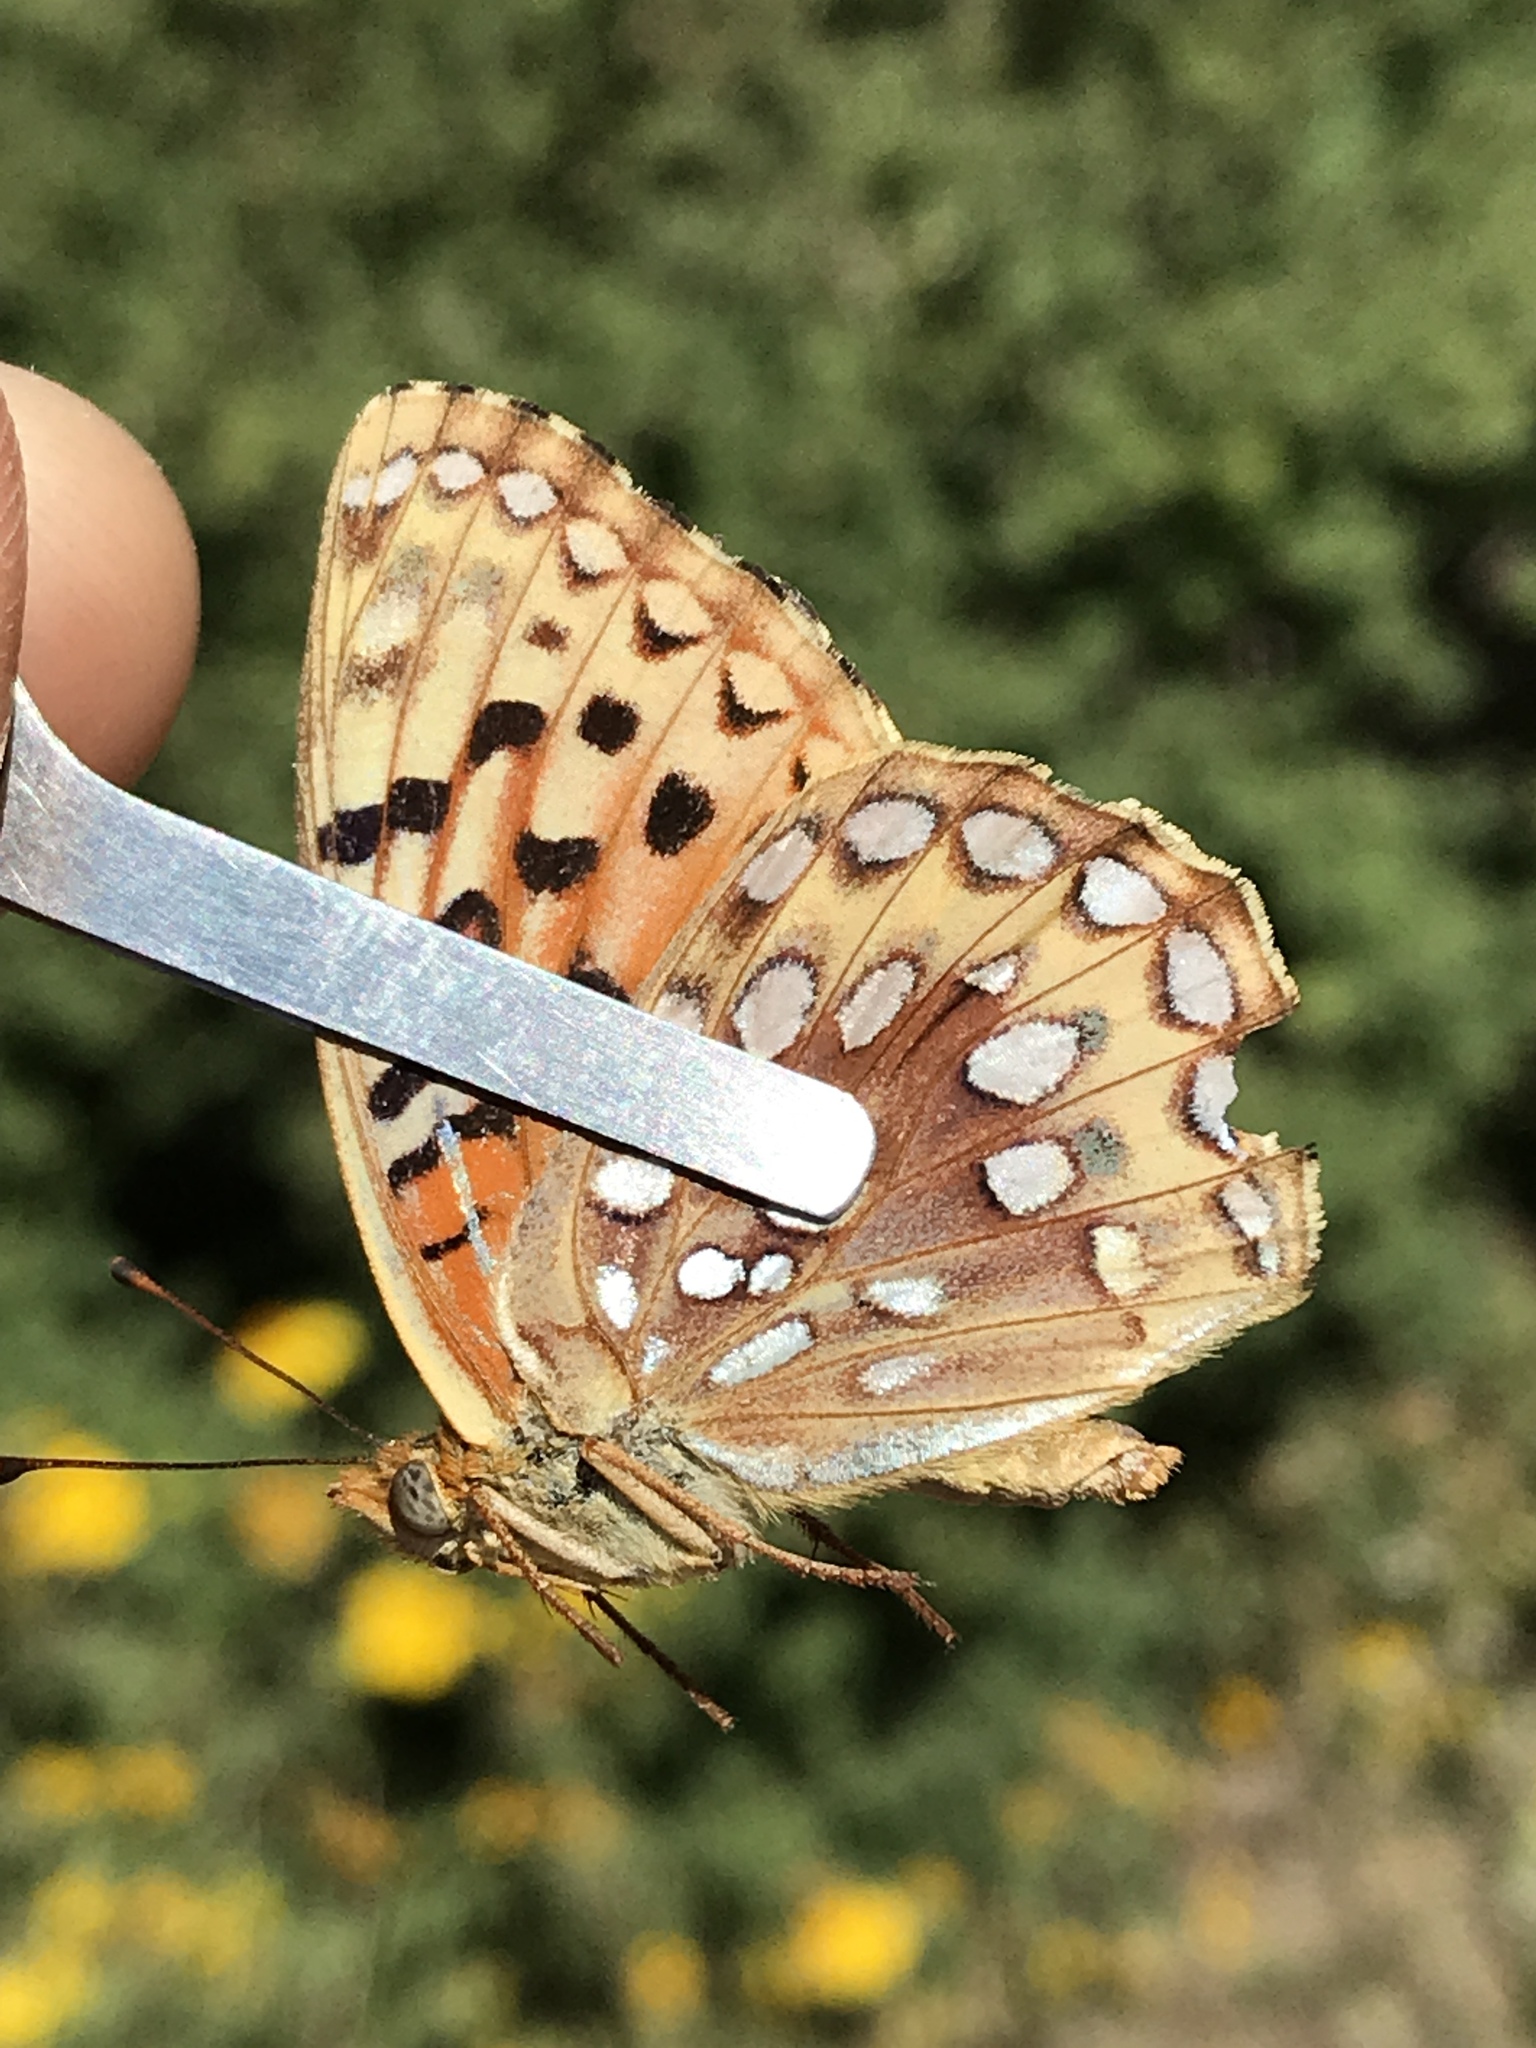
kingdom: Animalia
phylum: Arthropoda
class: Insecta
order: Lepidoptera
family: Nymphalidae
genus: Argynnis
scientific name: Argynnis coronis
